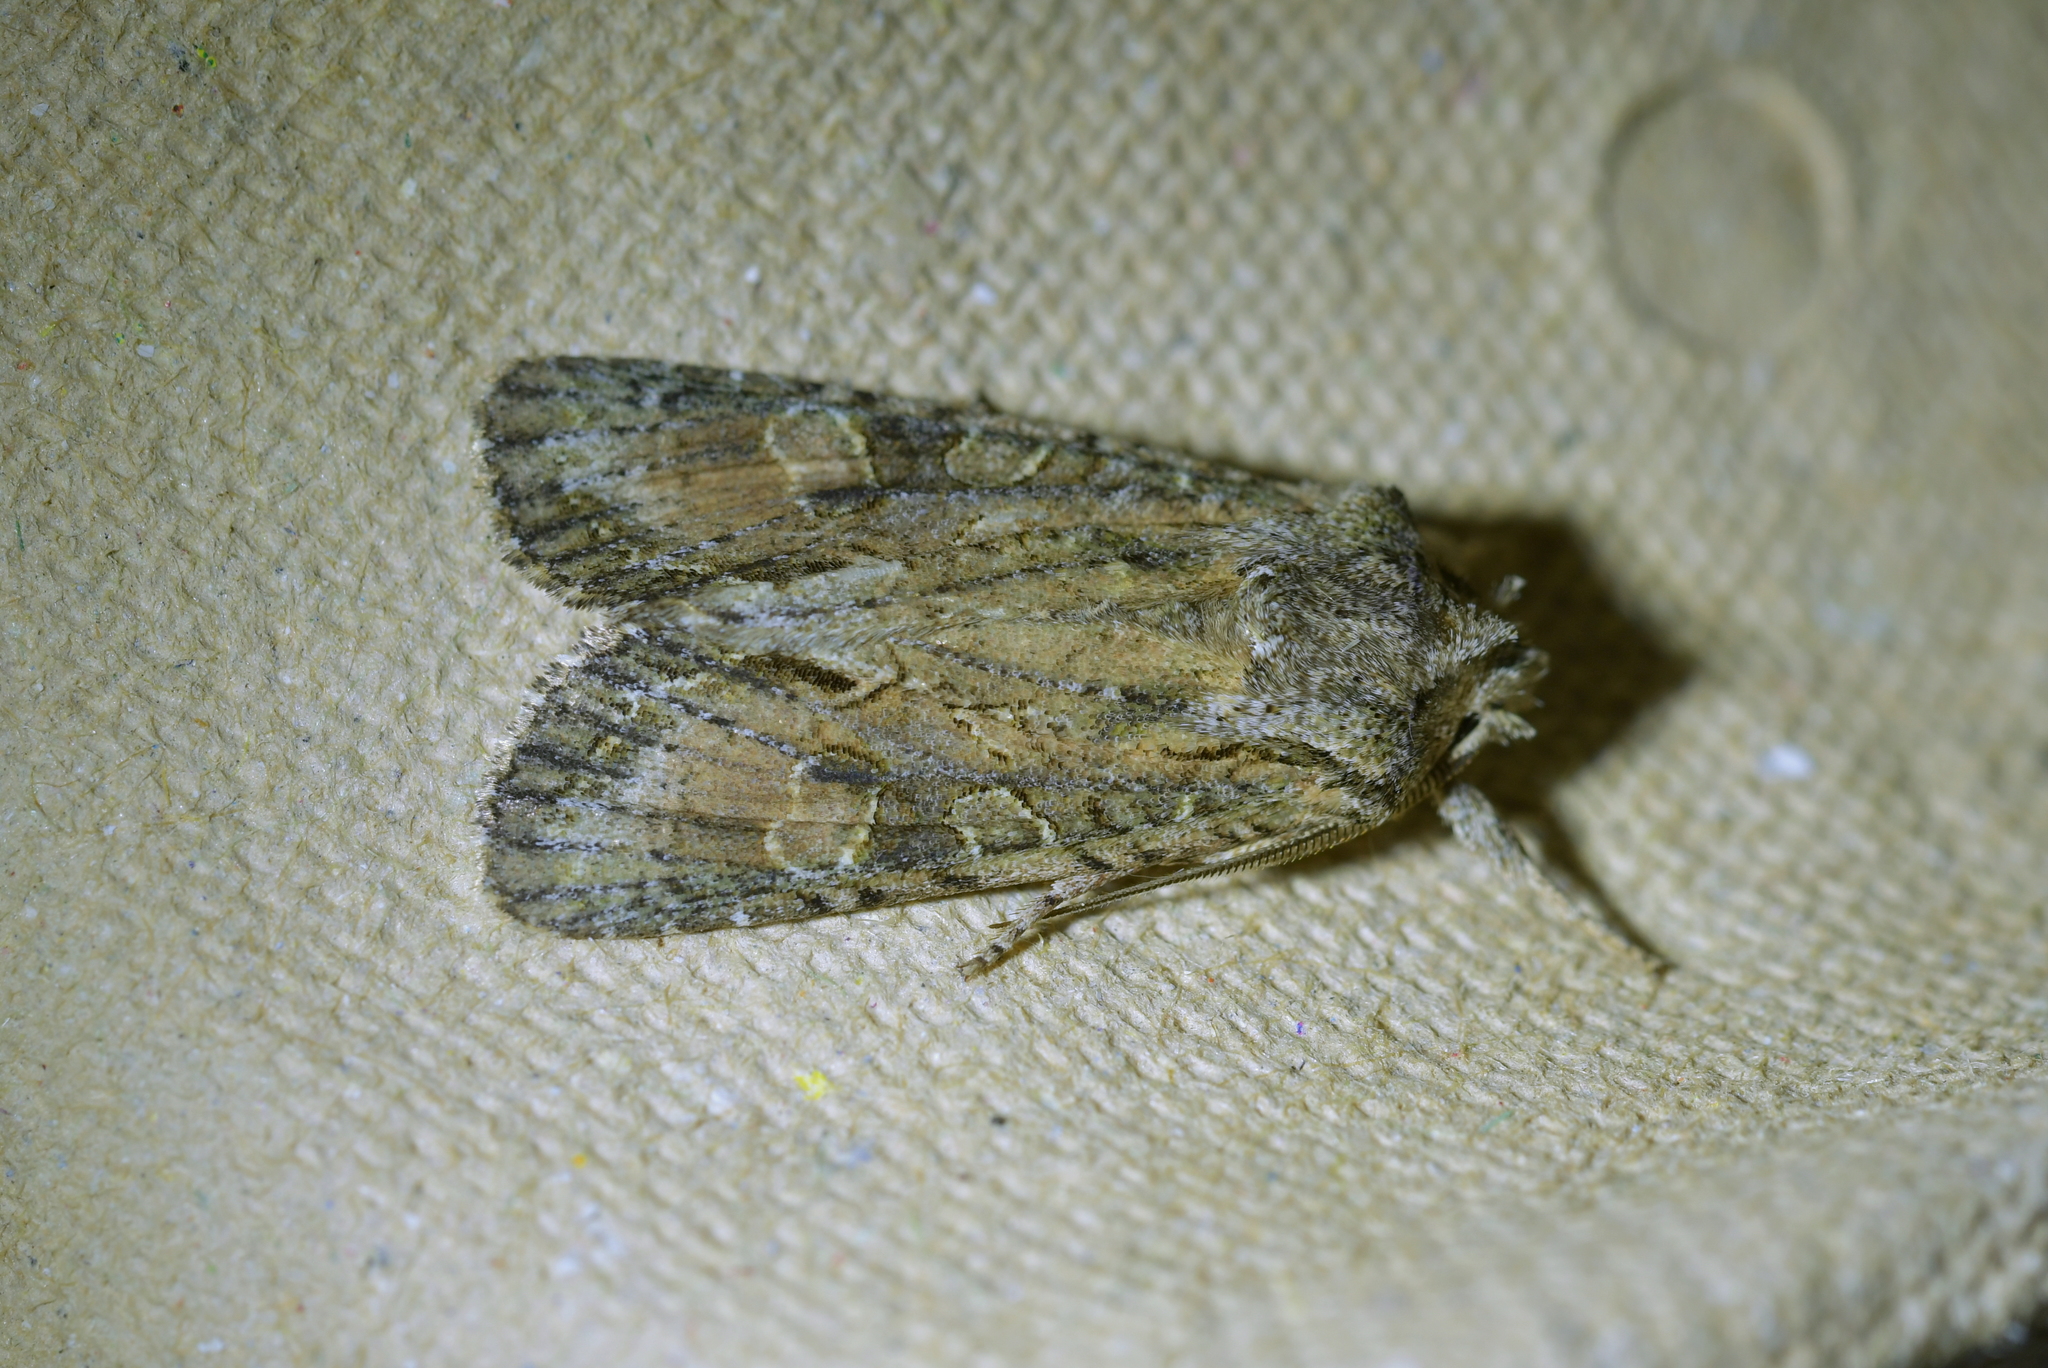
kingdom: Animalia
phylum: Arthropoda
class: Insecta
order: Lepidoptera
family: Noctuidae
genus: Ichneutica
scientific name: Ichneutica mutans
